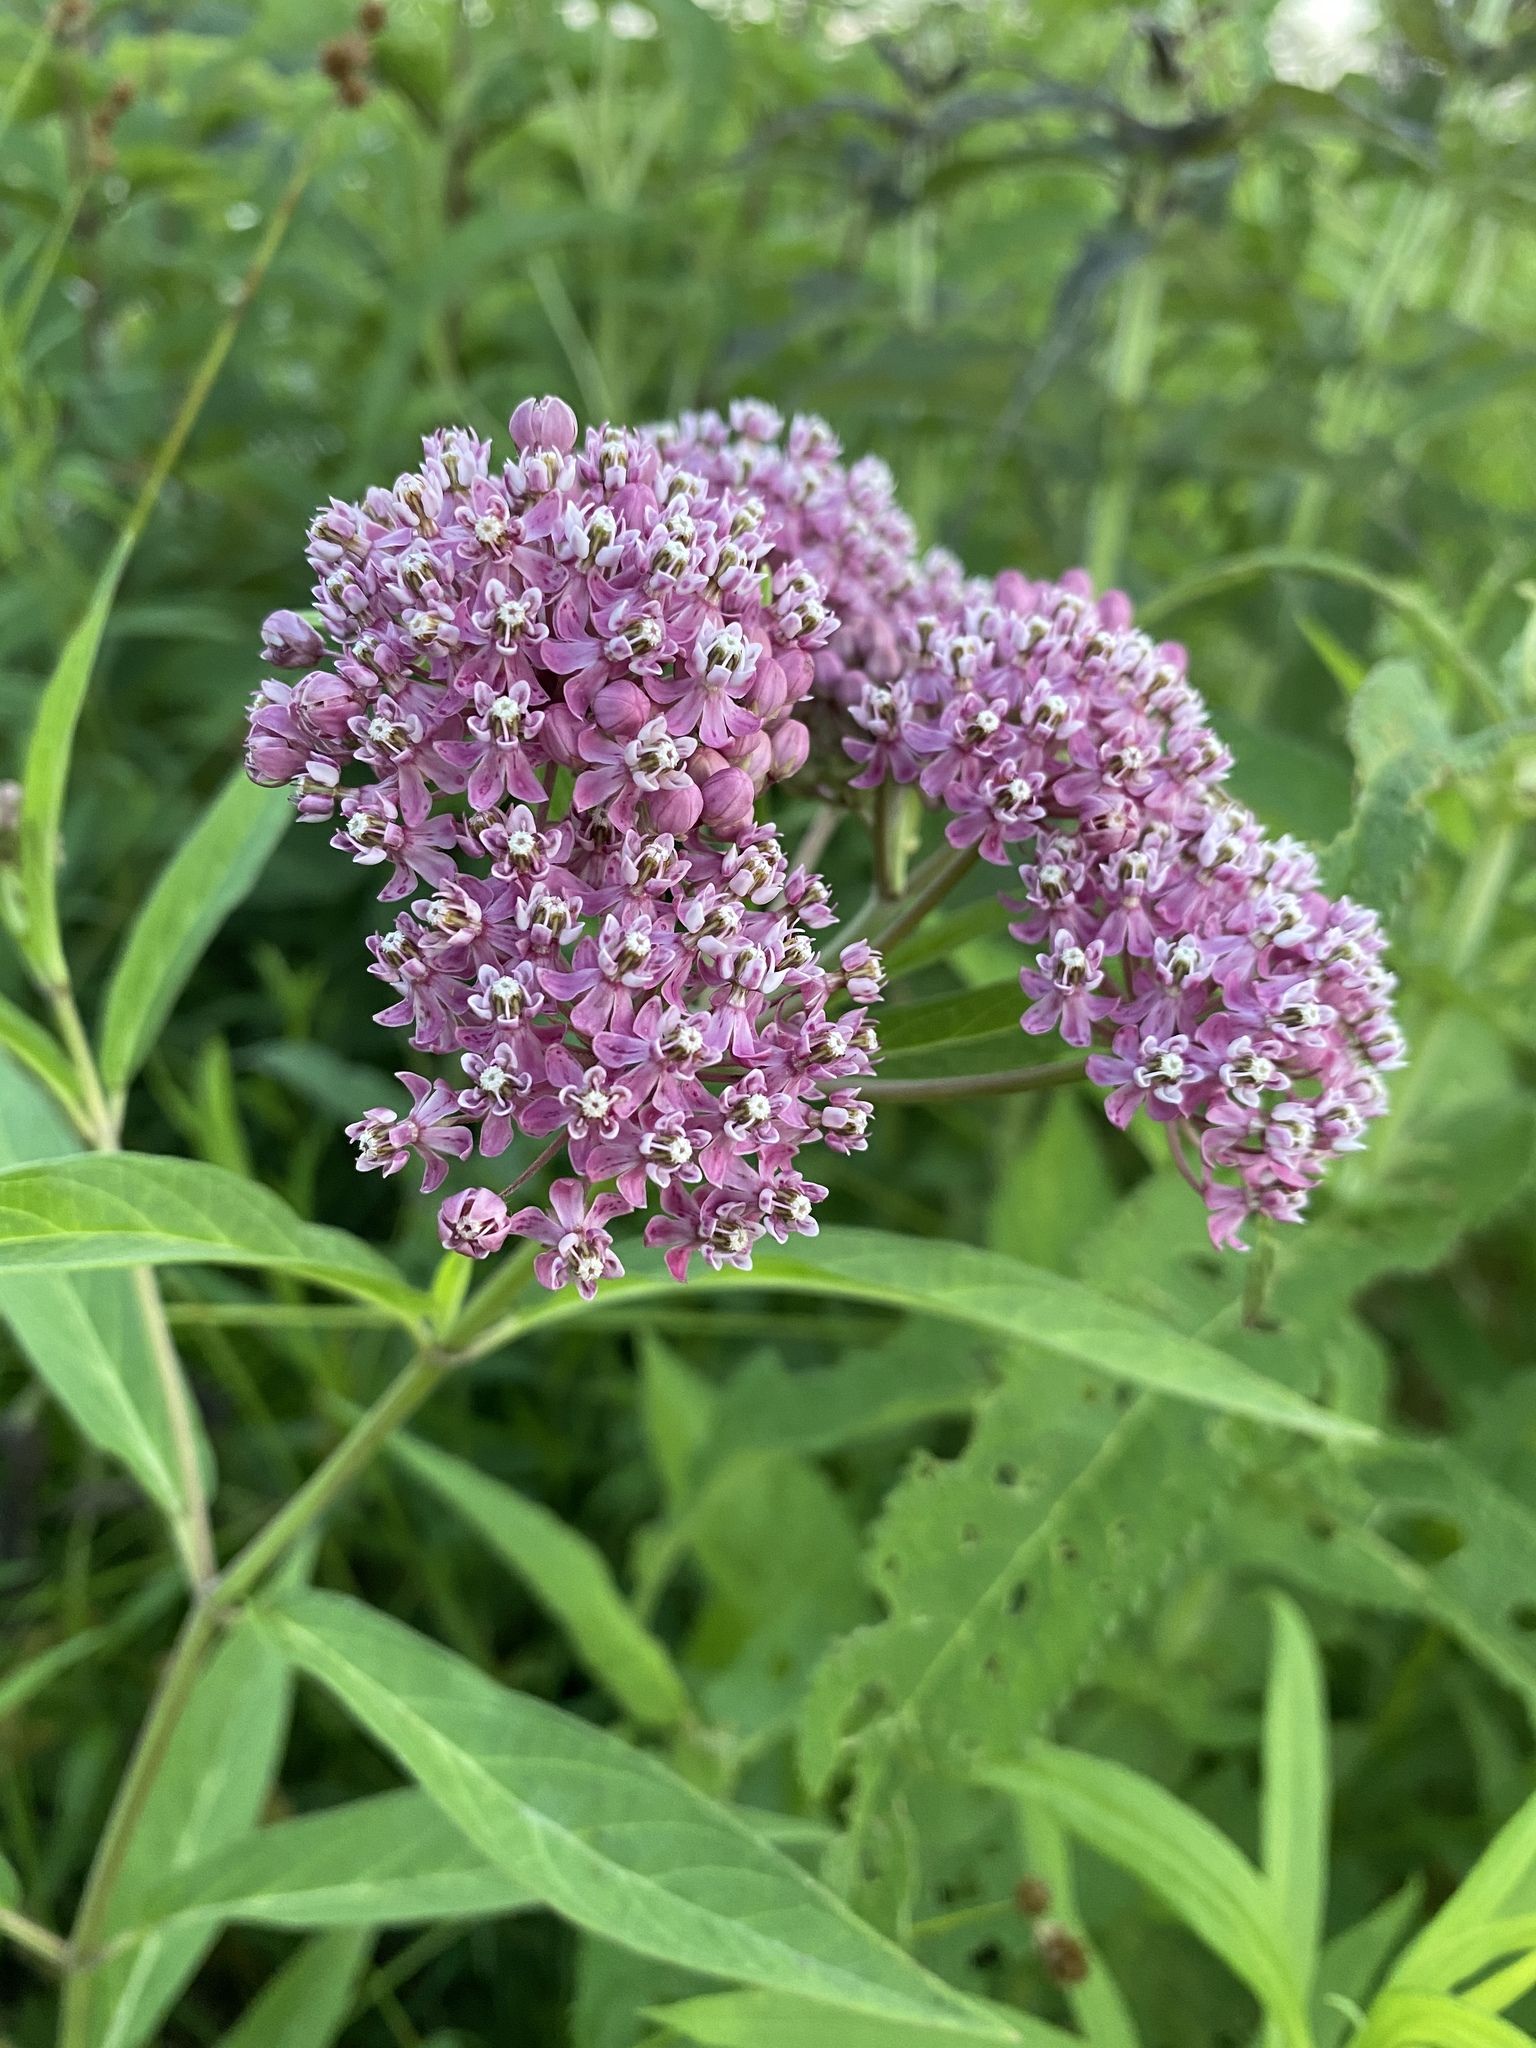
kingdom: Plantae
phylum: Tracheophyta
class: Magnoliopsida
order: Gentianales
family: Apocynaceae
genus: Asclepias
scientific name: Asclepias incarnata
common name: Swamp milkweed
